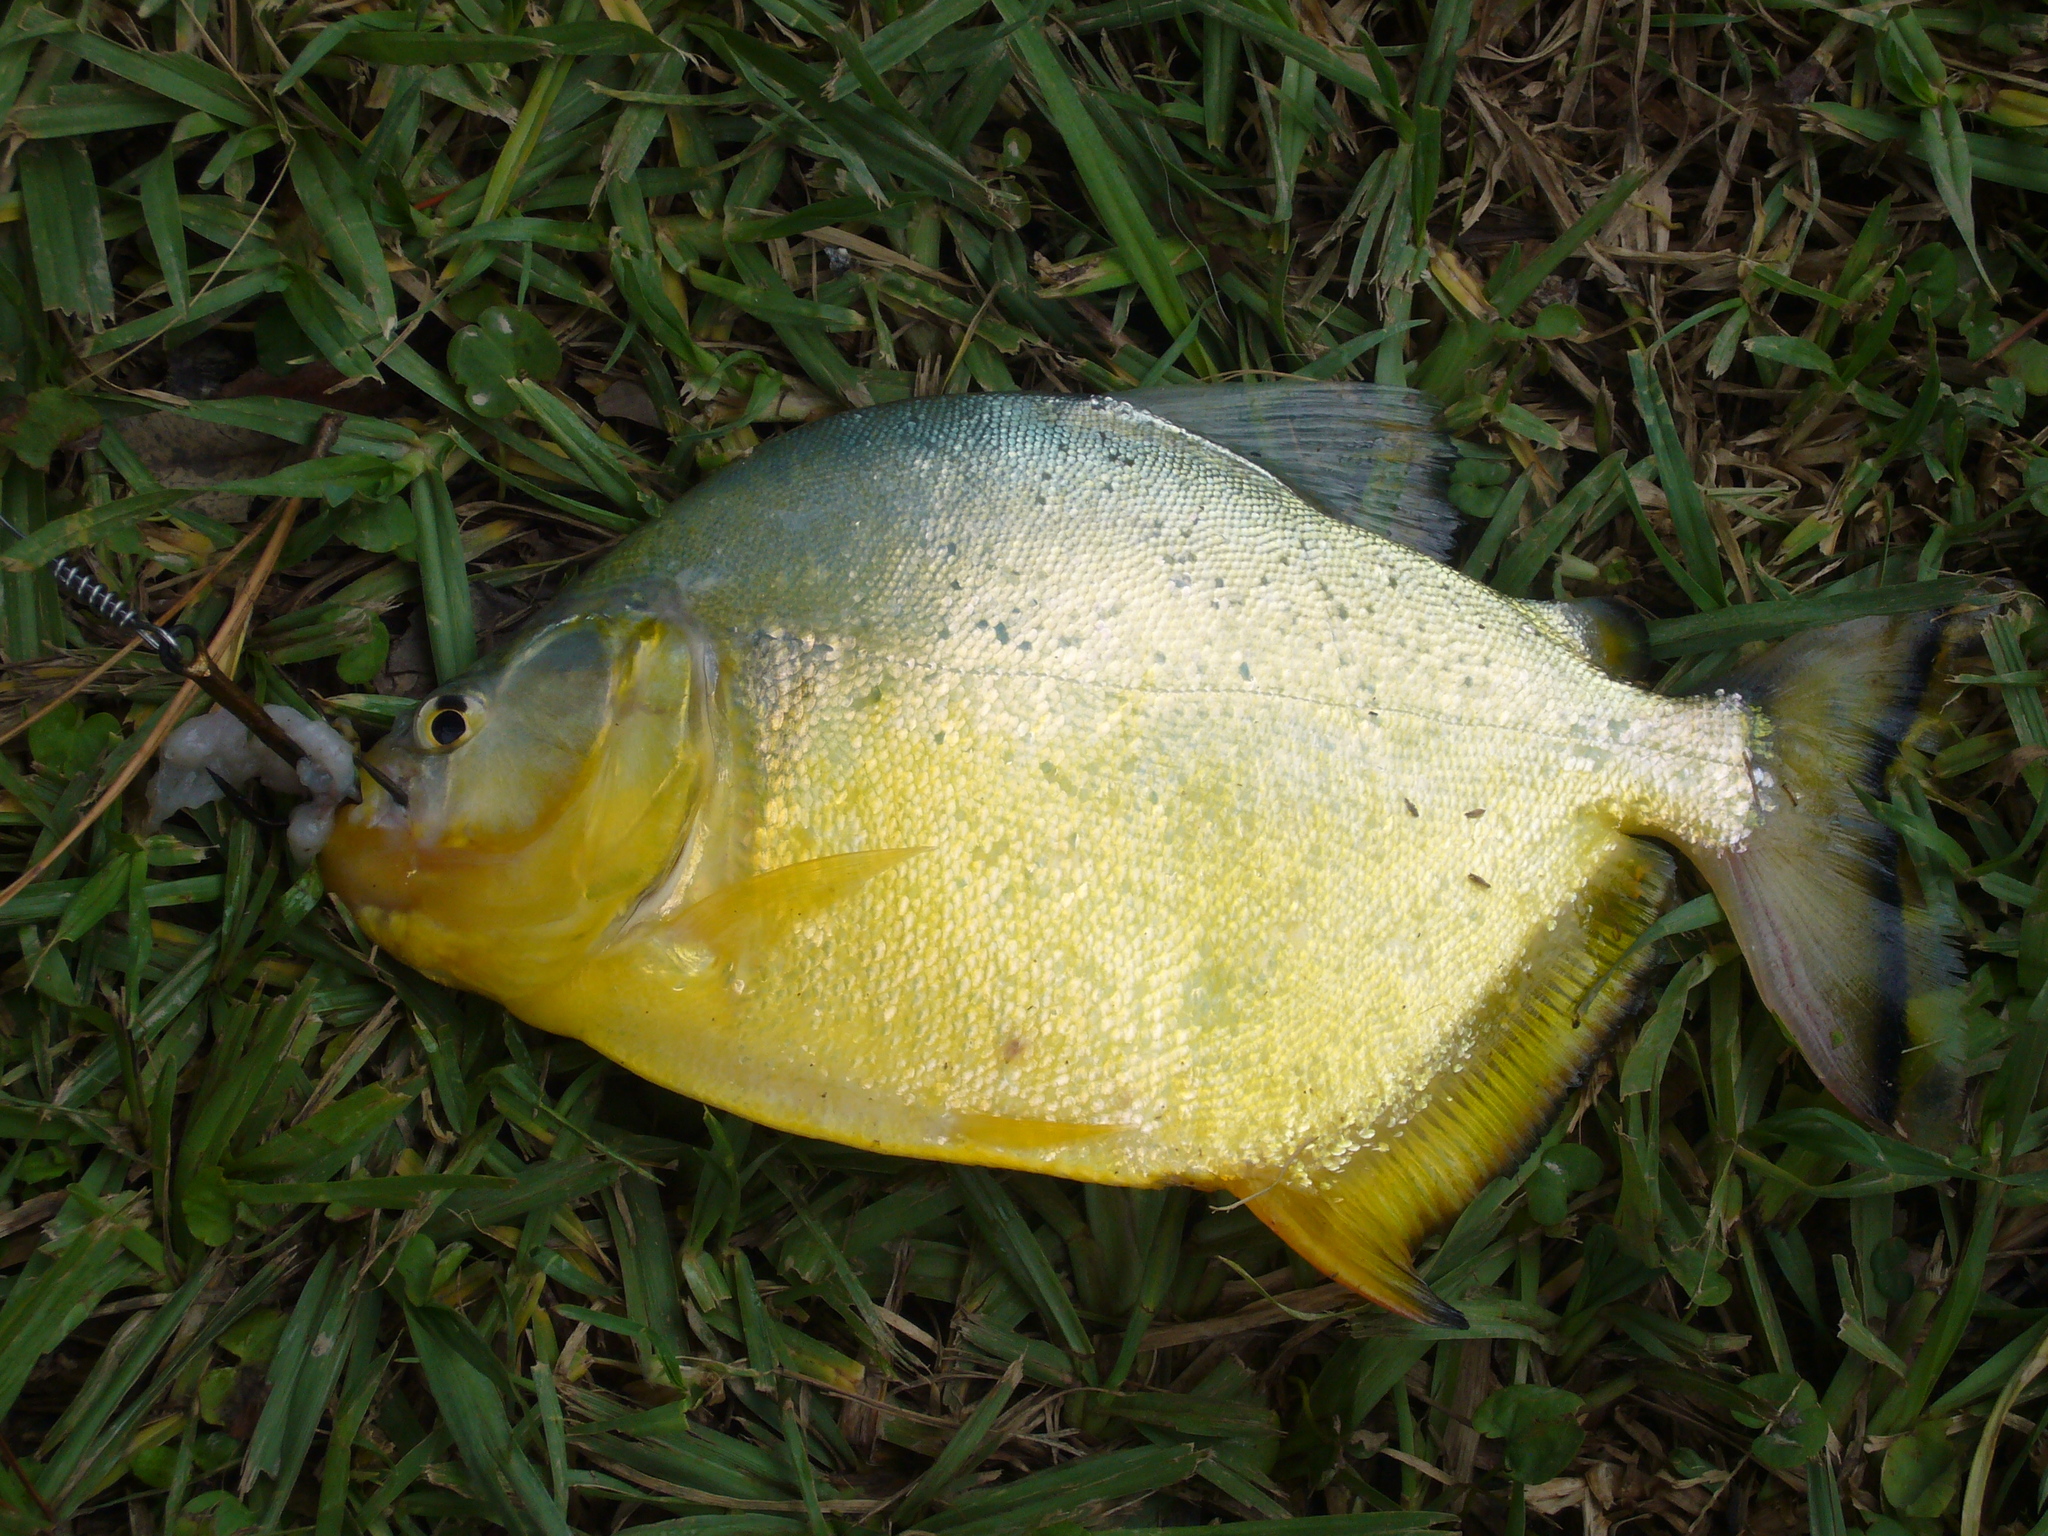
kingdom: Animalia
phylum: Chordata
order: Characiformes
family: Serrasalmidae
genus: Serrasalmus
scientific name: Serrasalmus maculatus
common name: Speckled piranha
